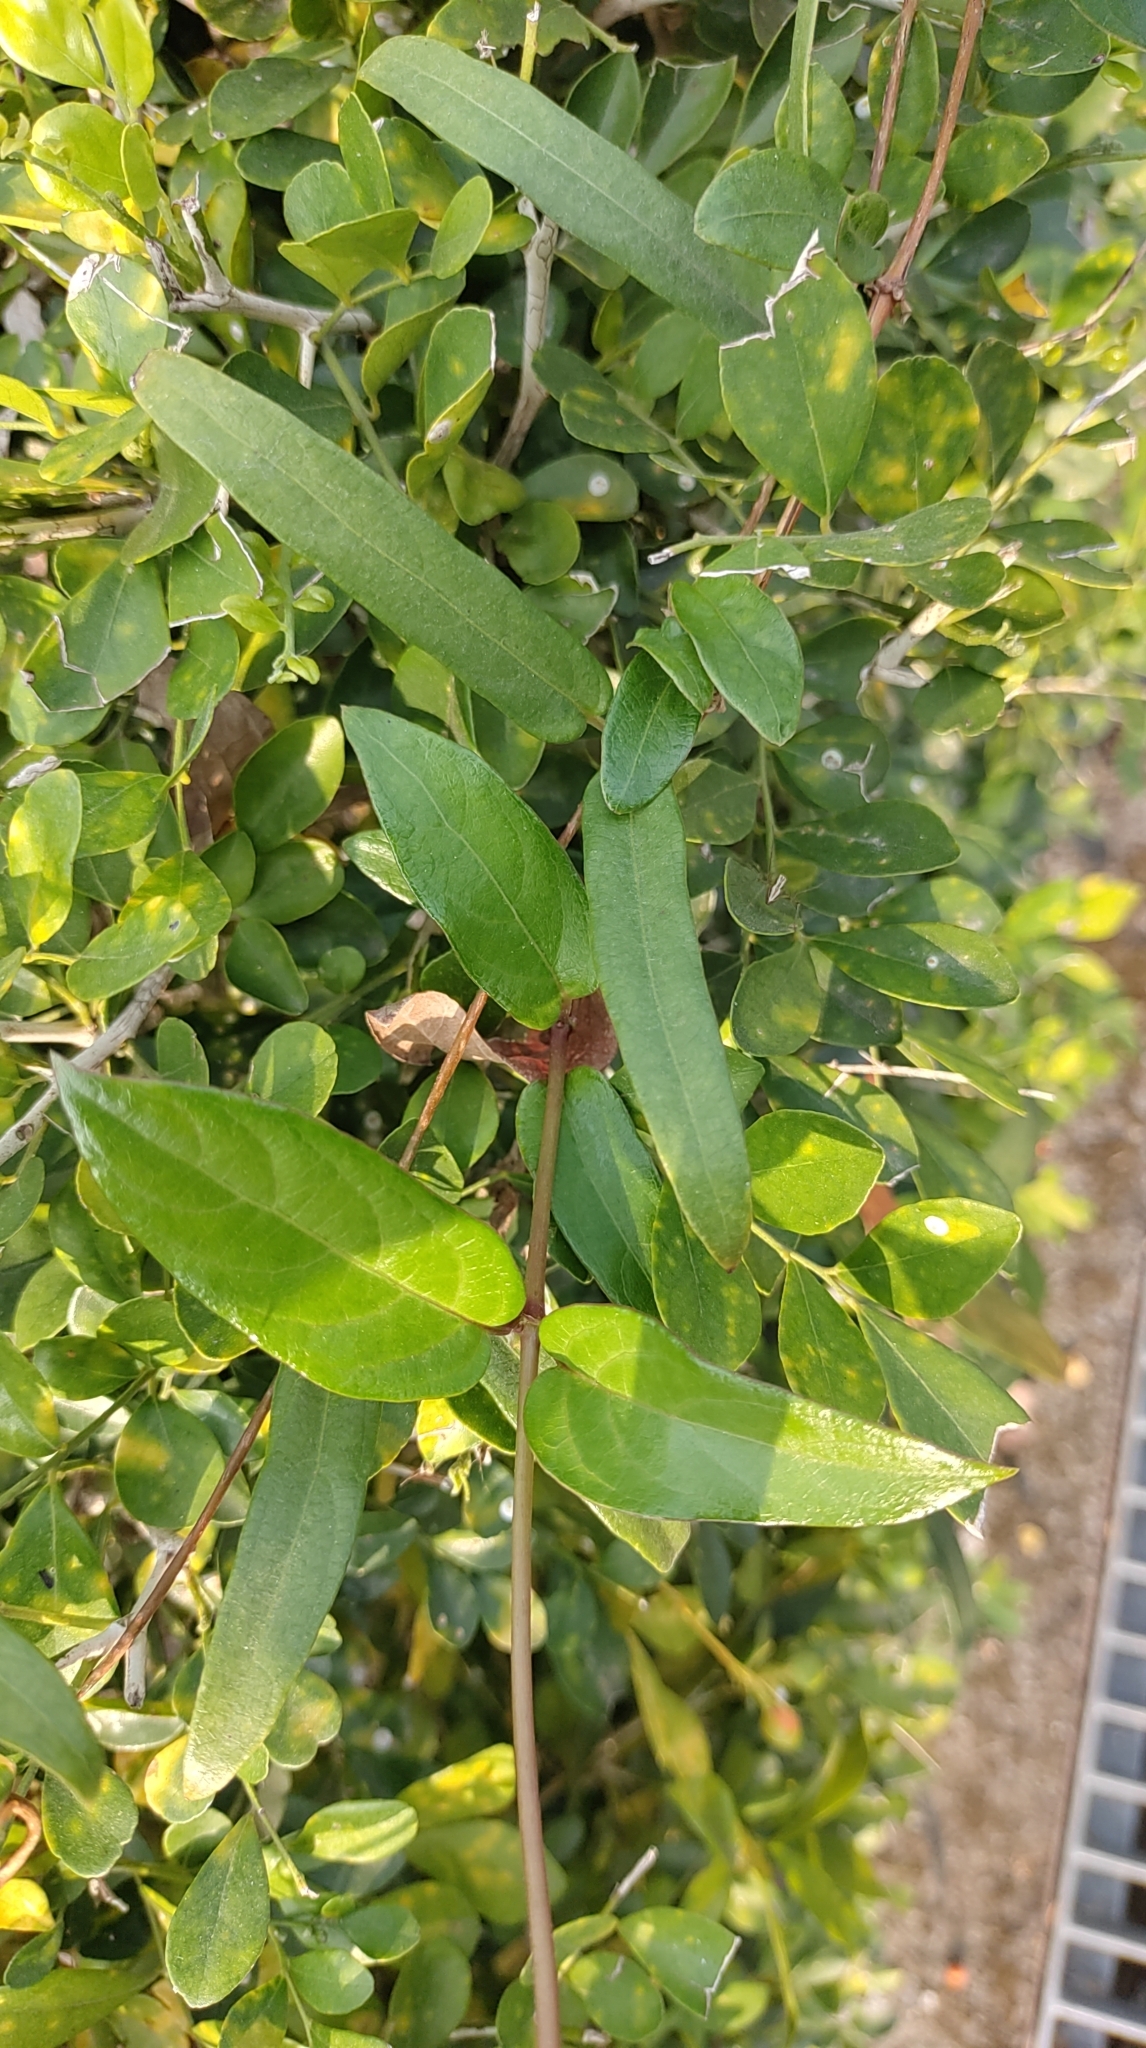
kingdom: Plantae
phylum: Tracheophyta
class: Magnoliopsida
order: Gentianales
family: Rubiaceae
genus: Paederia
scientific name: Paederia foetida
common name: Stinkvine
